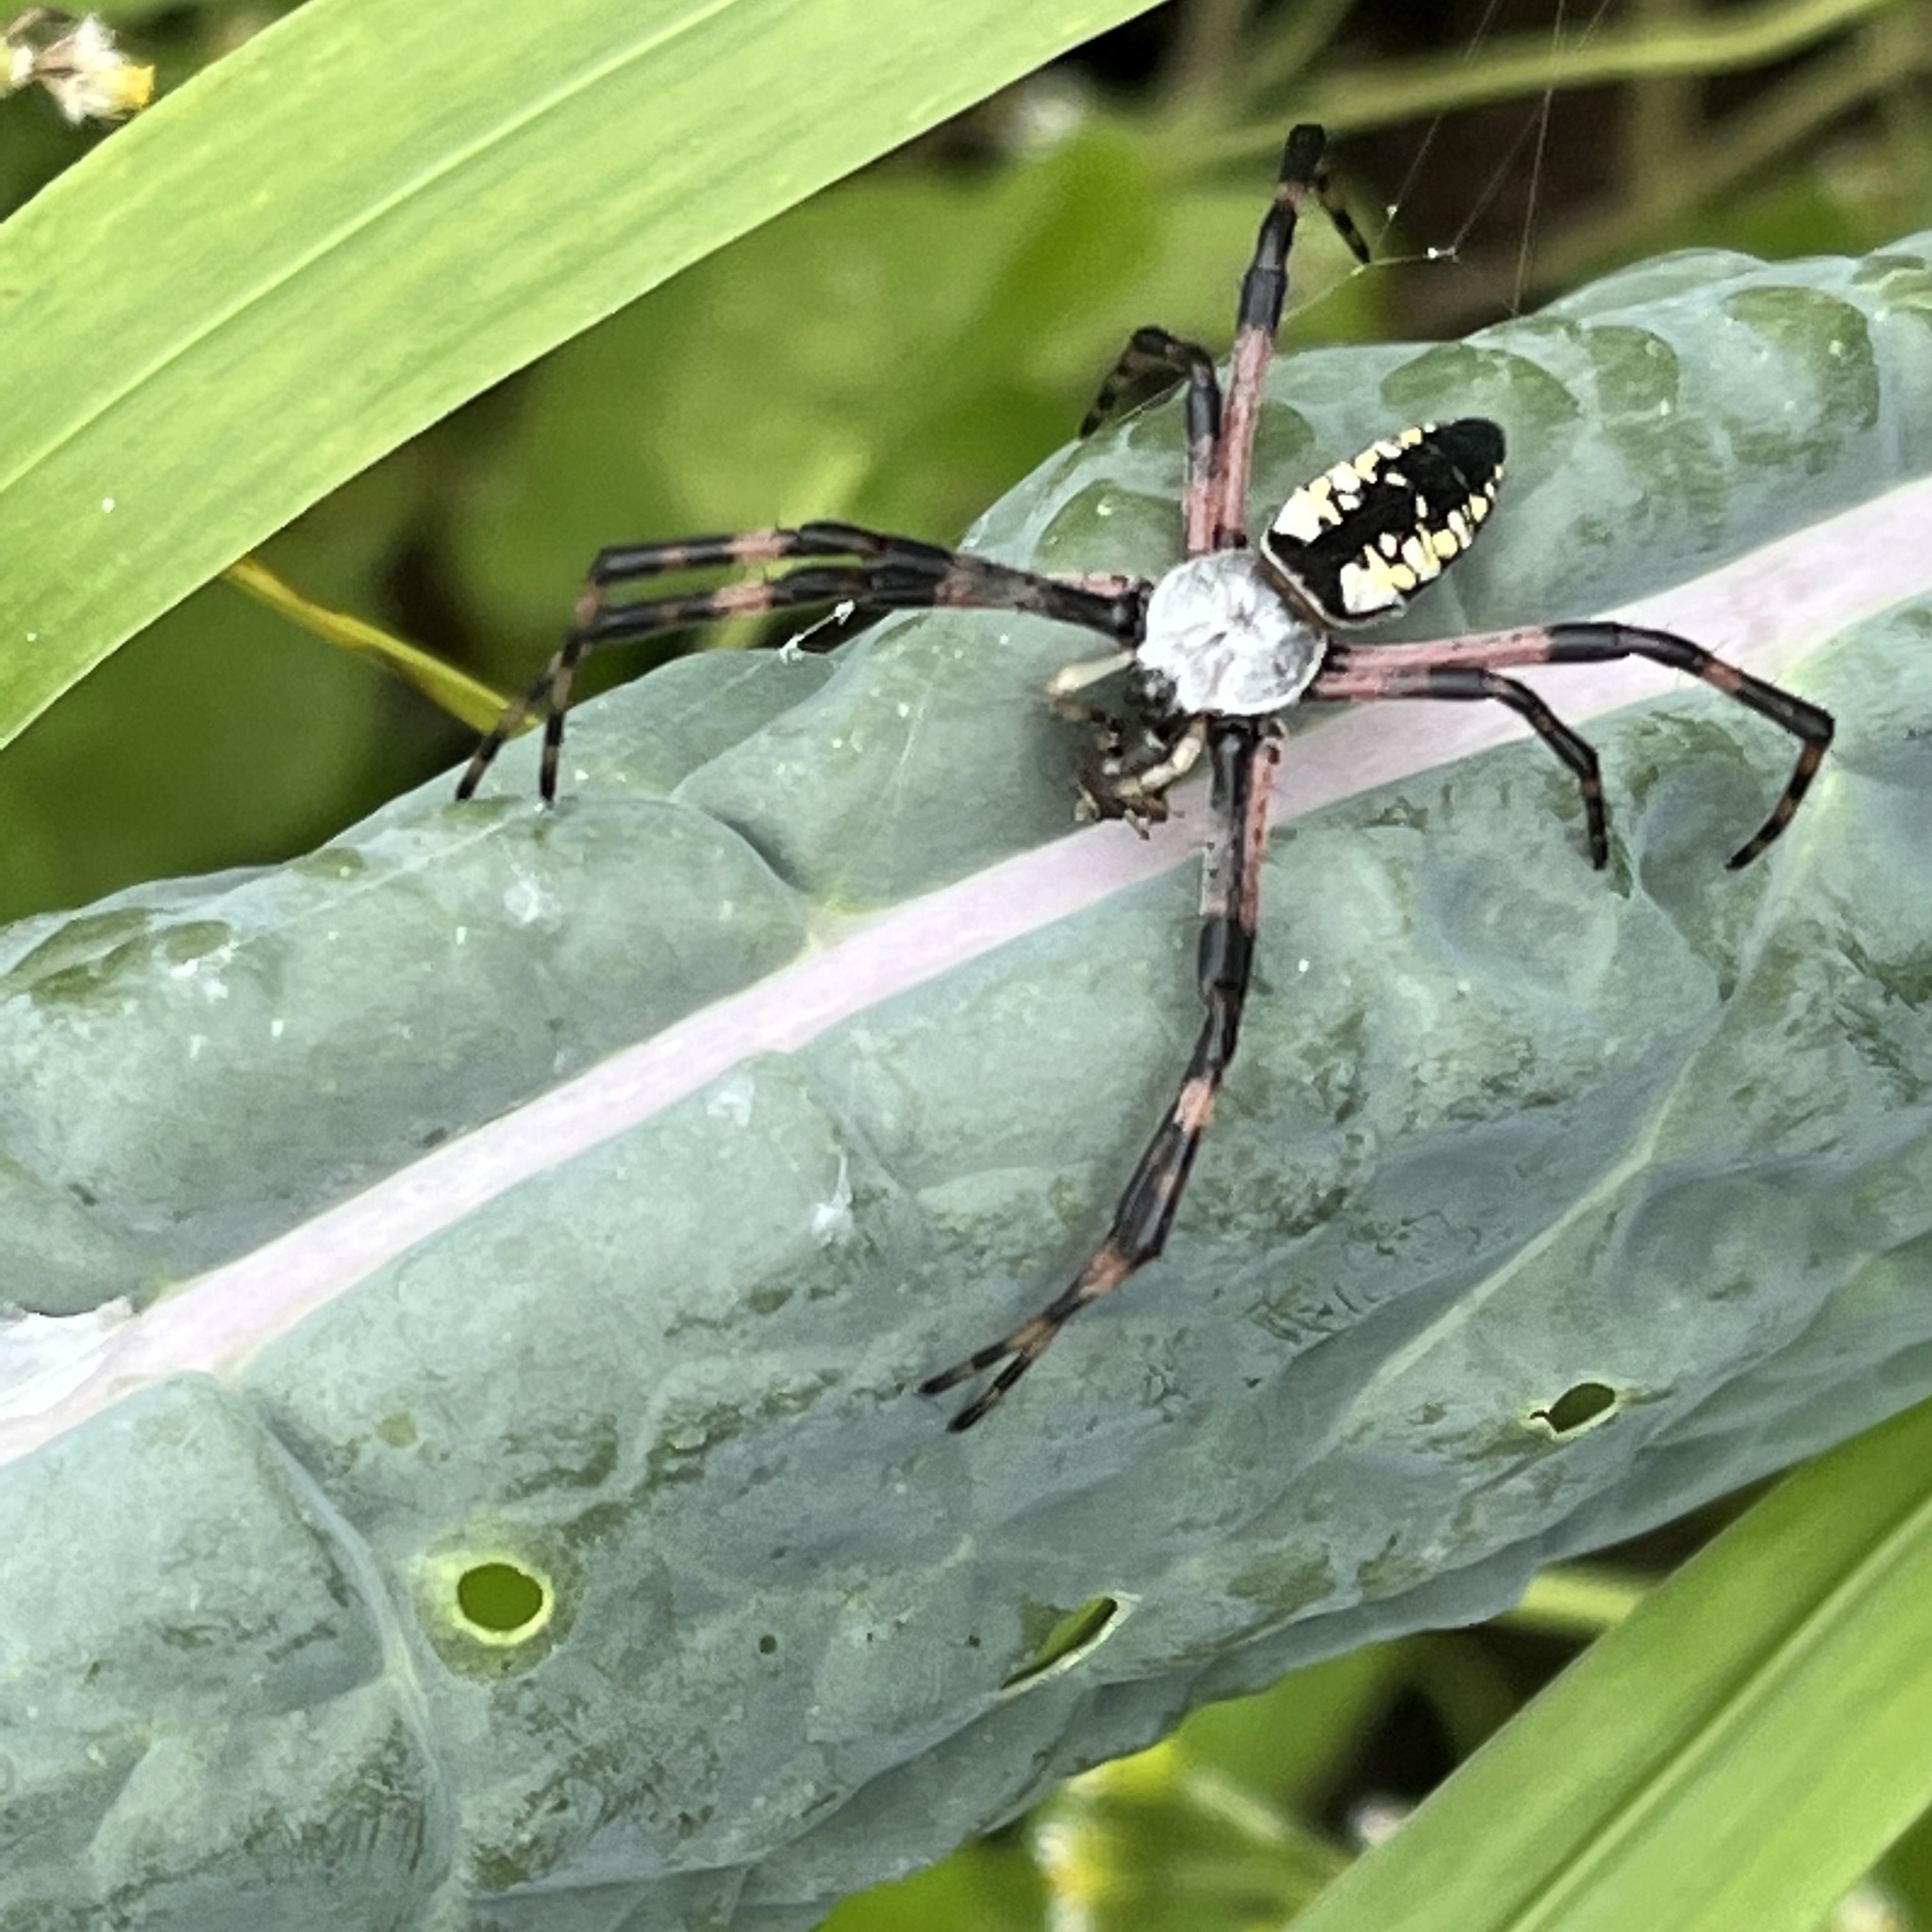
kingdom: Animalia
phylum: Arthropoda
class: Arachnida
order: Araneae
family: Araneidae
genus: Argiope
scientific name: Argiope aurantia
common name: Orb weavers
